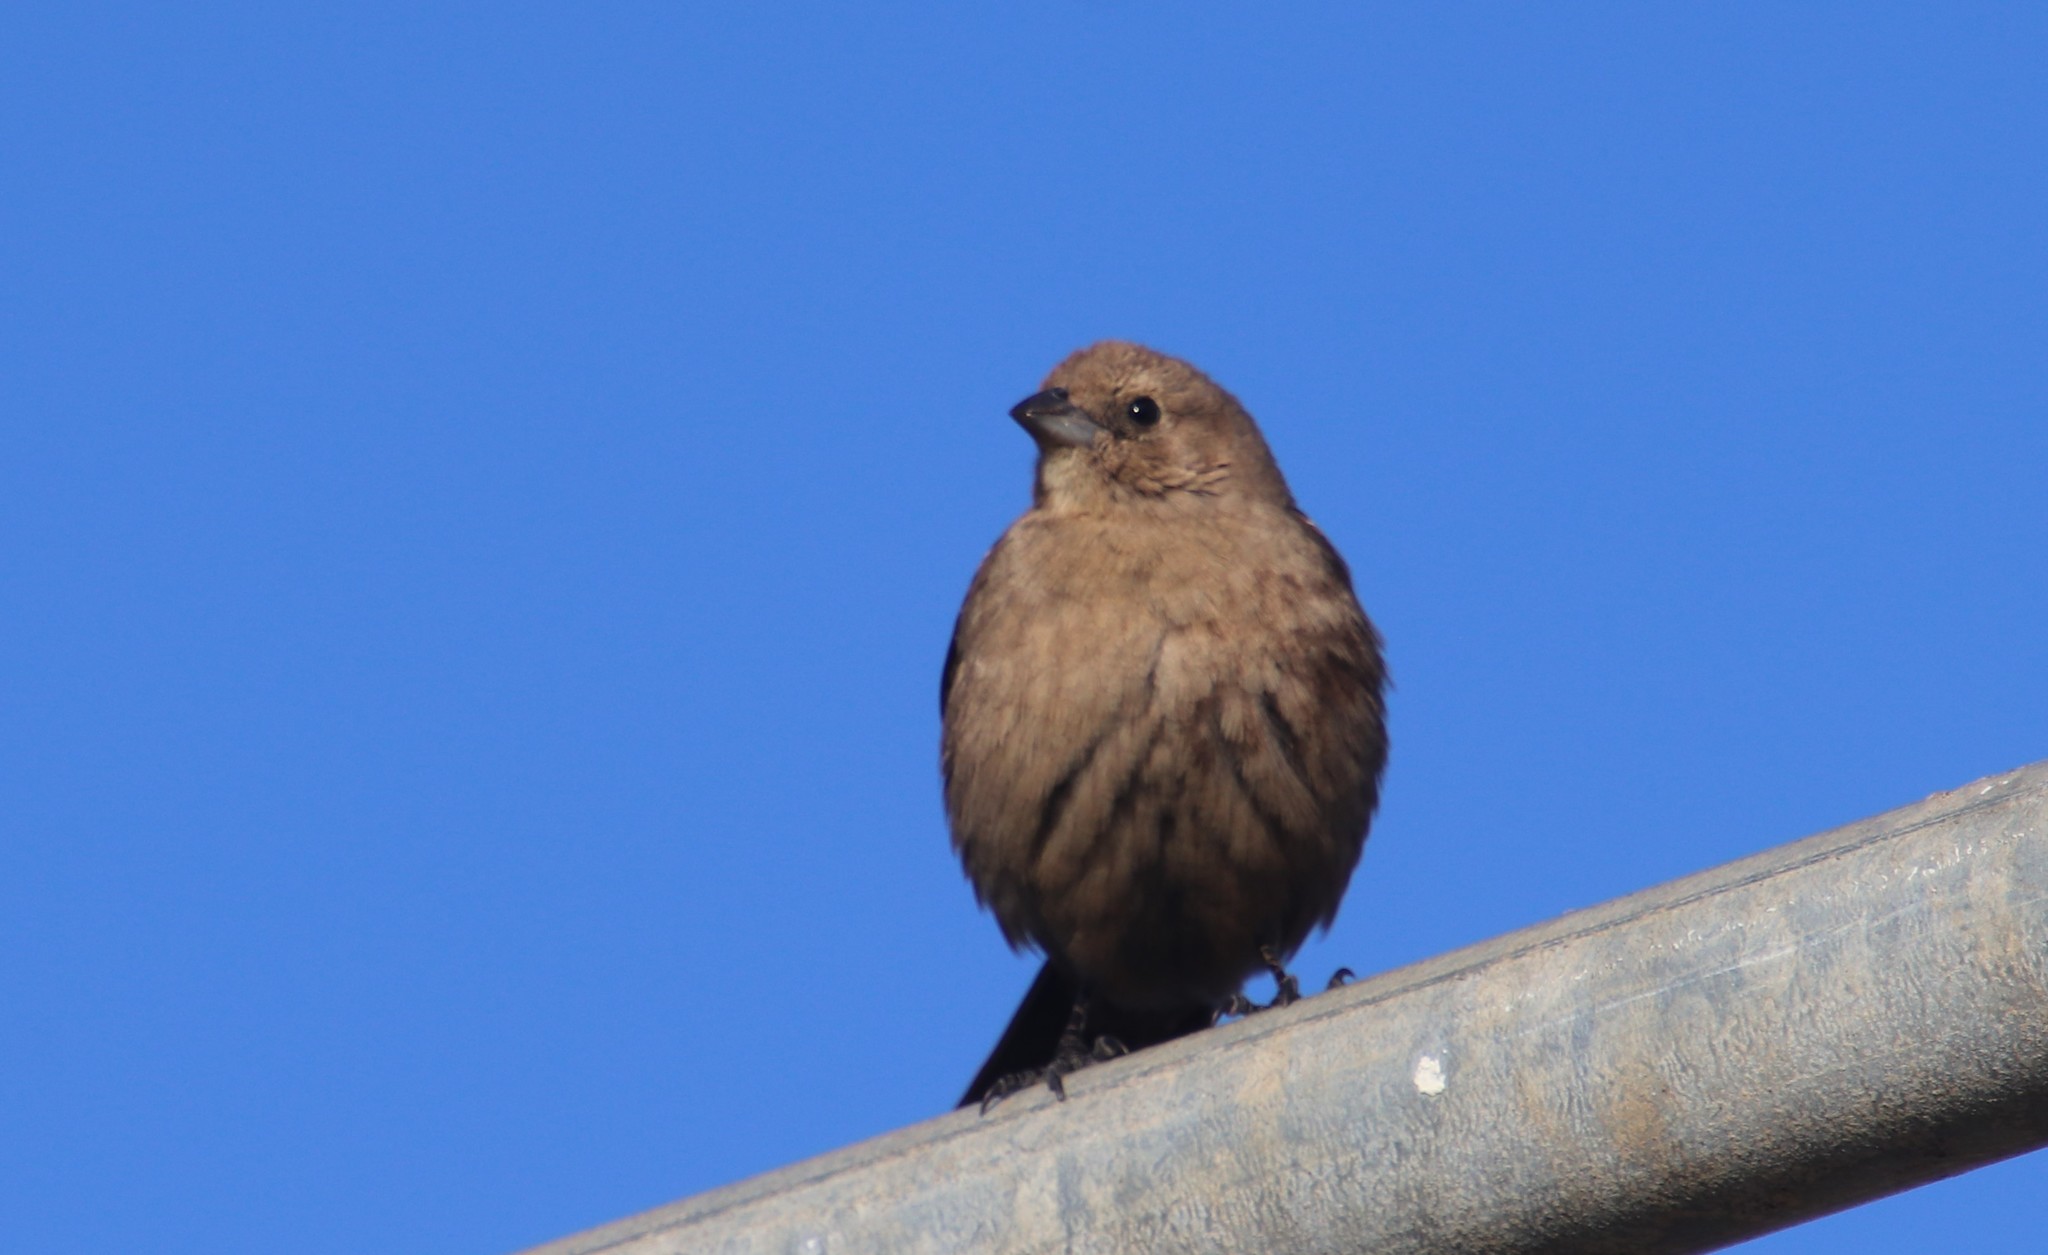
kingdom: Animalia
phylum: Chordata
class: Aves
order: Passeriformes
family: Icteridae
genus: Molothrus
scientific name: Molothrus ater
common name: Brown-headed cowbird
